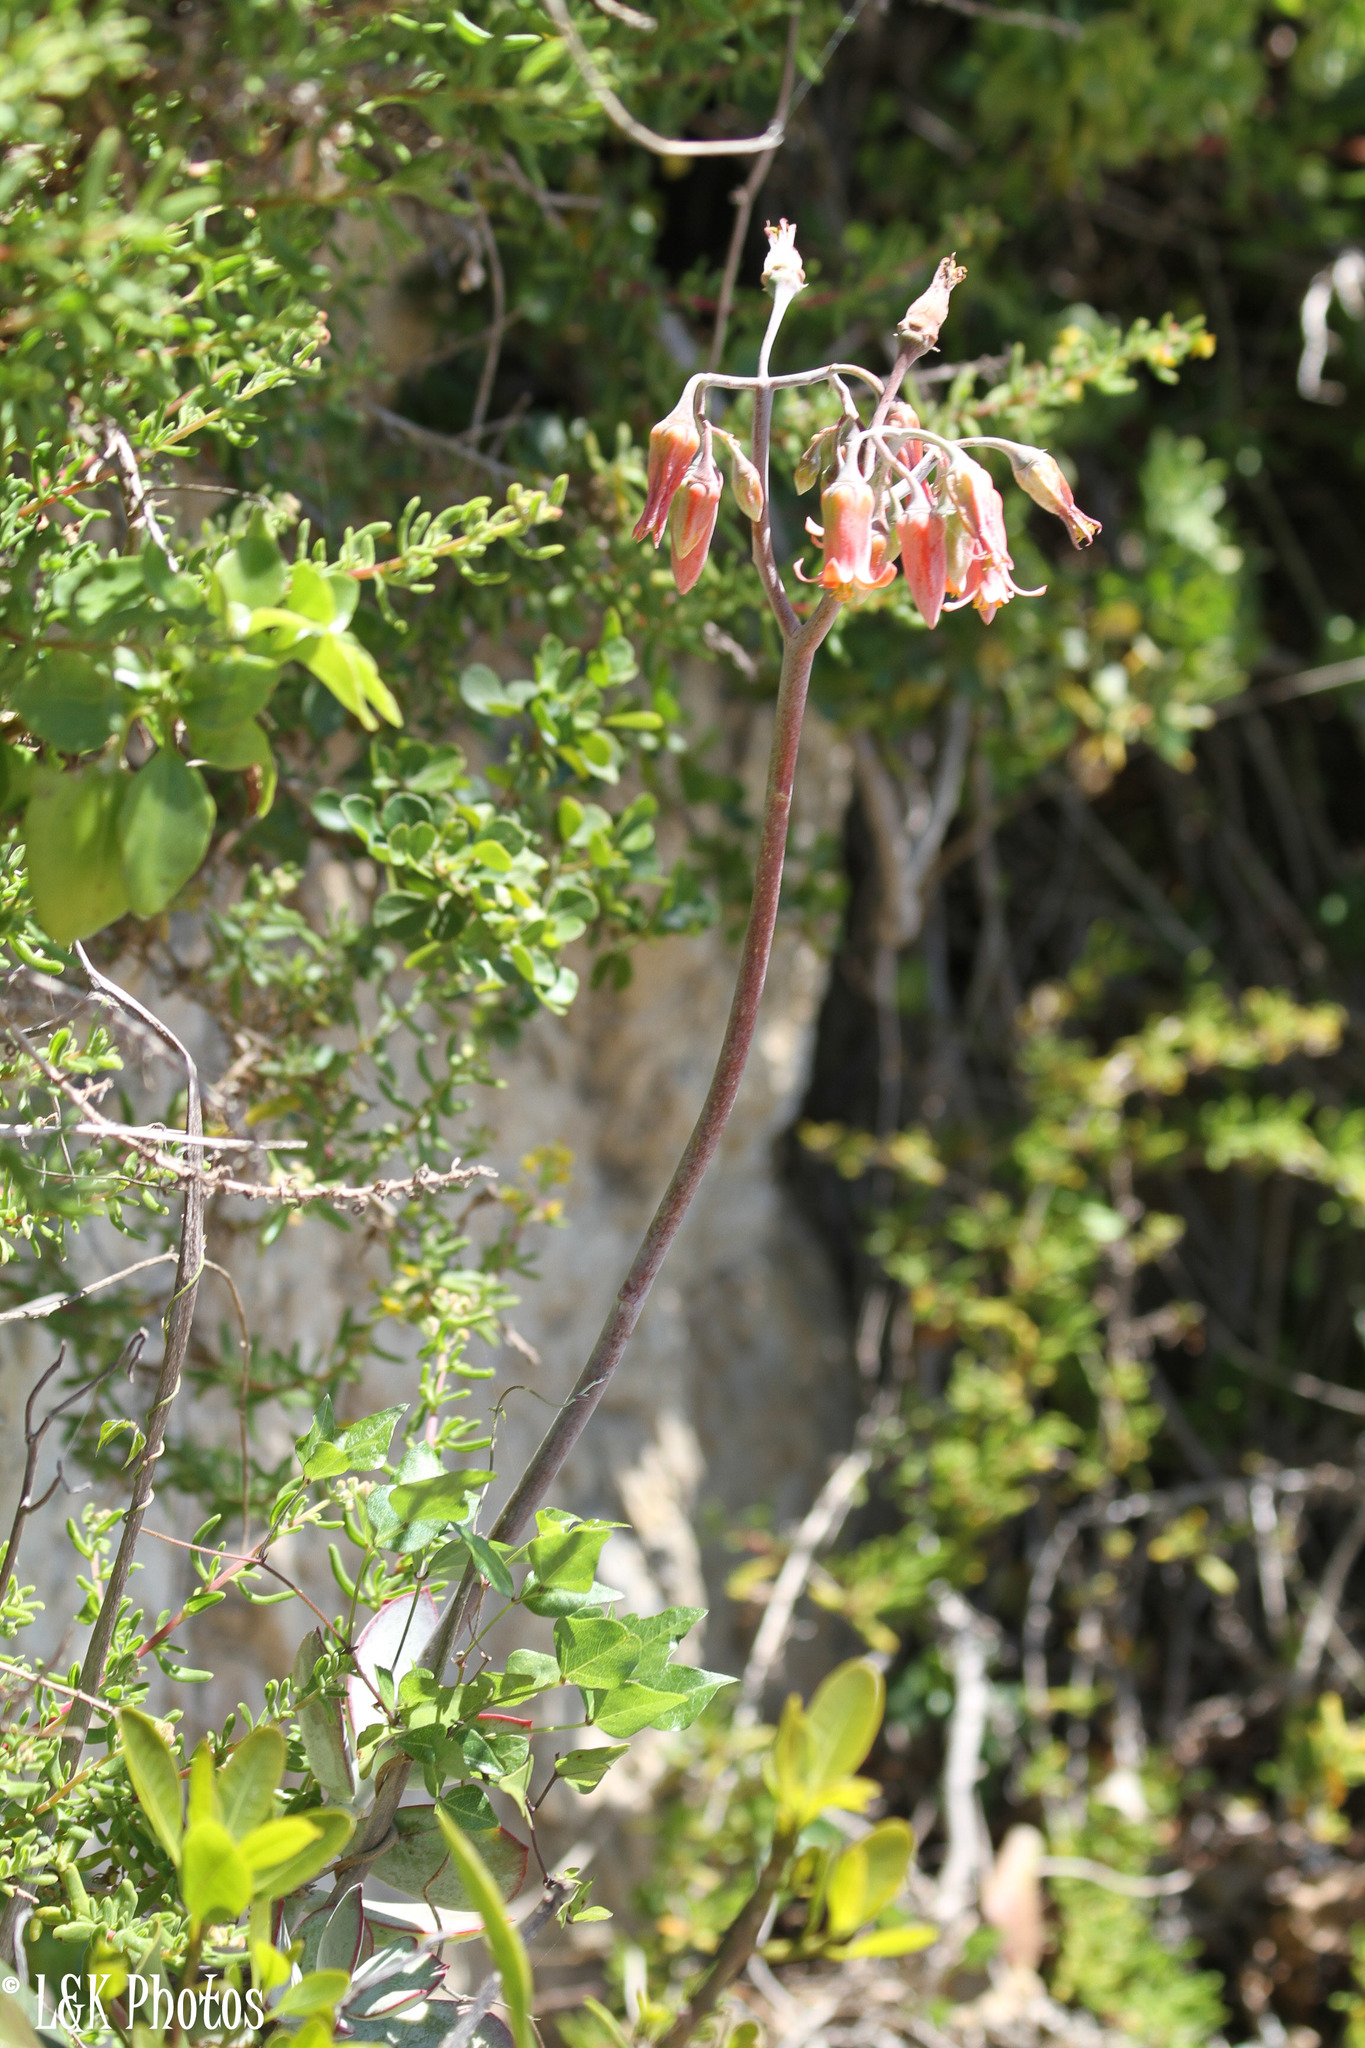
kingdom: Plantae
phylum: Tracheophyta
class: Magnoliopsida
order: Saxifragales
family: Crassulaceae
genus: Cotyledon
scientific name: Cotyledon orbiculata
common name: Pig's ear
